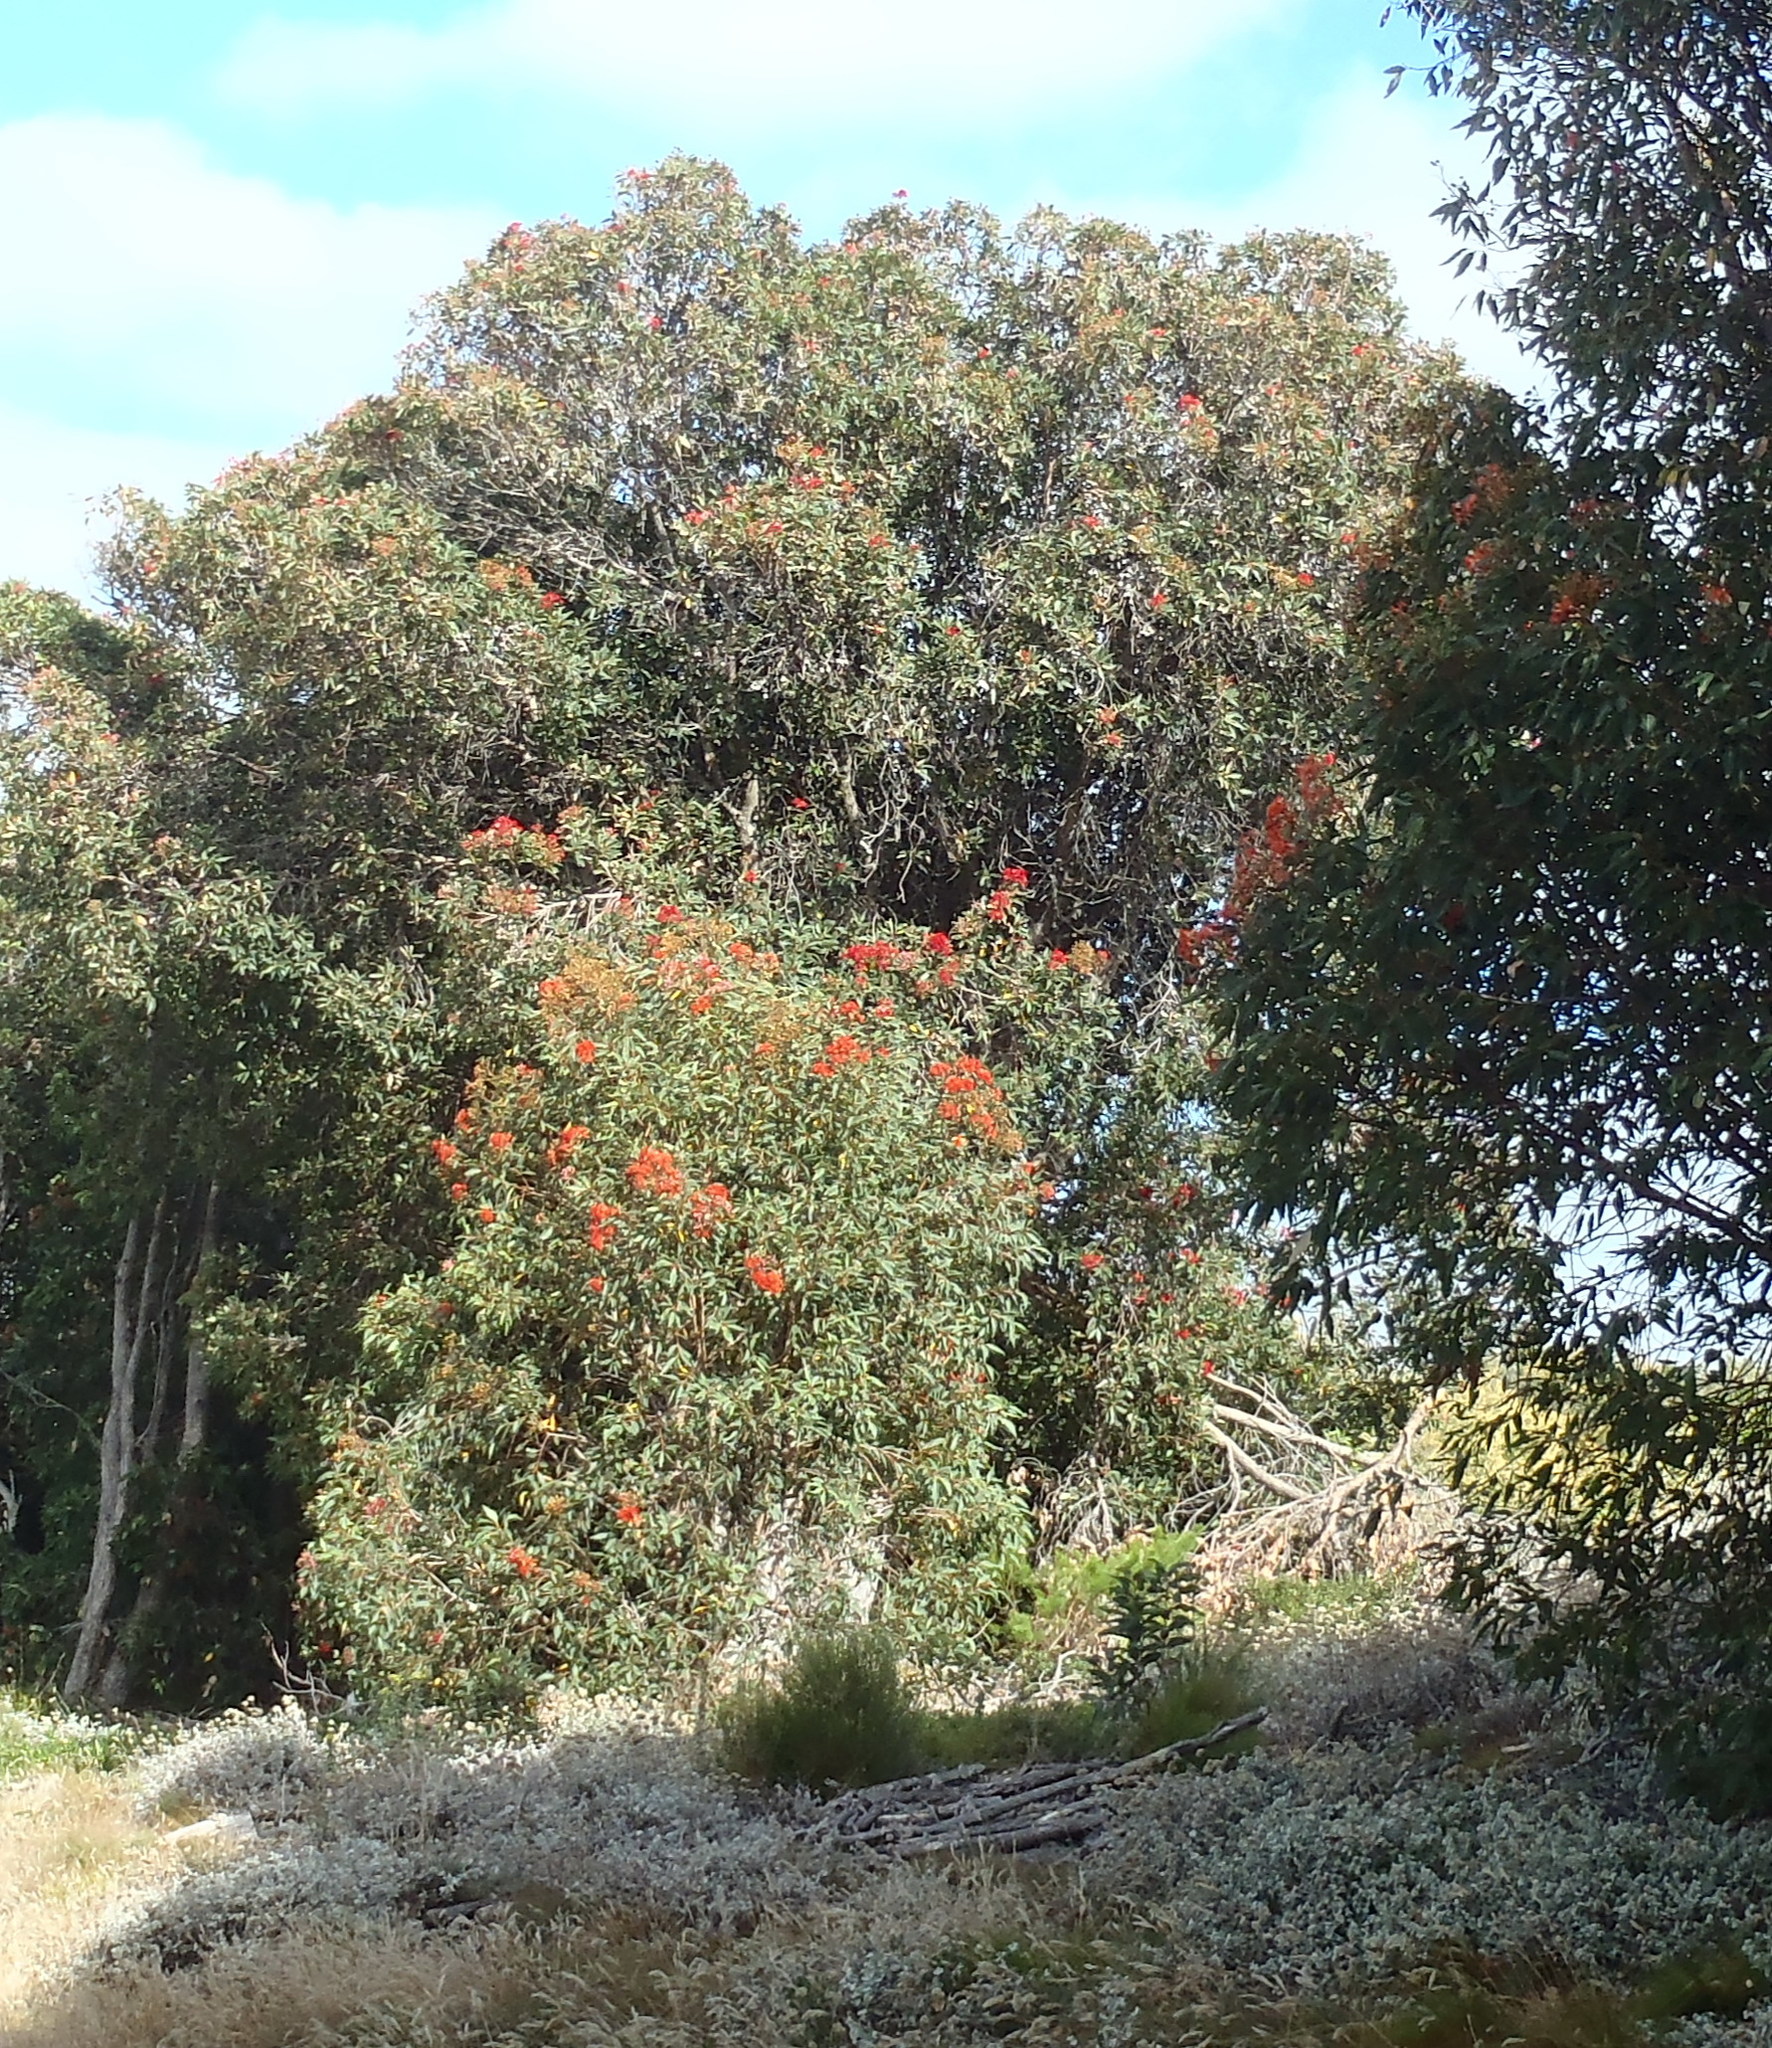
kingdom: Plantae
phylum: Tracheophyta
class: Magnoliopsida
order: Myrtales
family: Myrtaceae
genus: Corymbia
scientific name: Corymbia ficifolia
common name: Redflower gum
